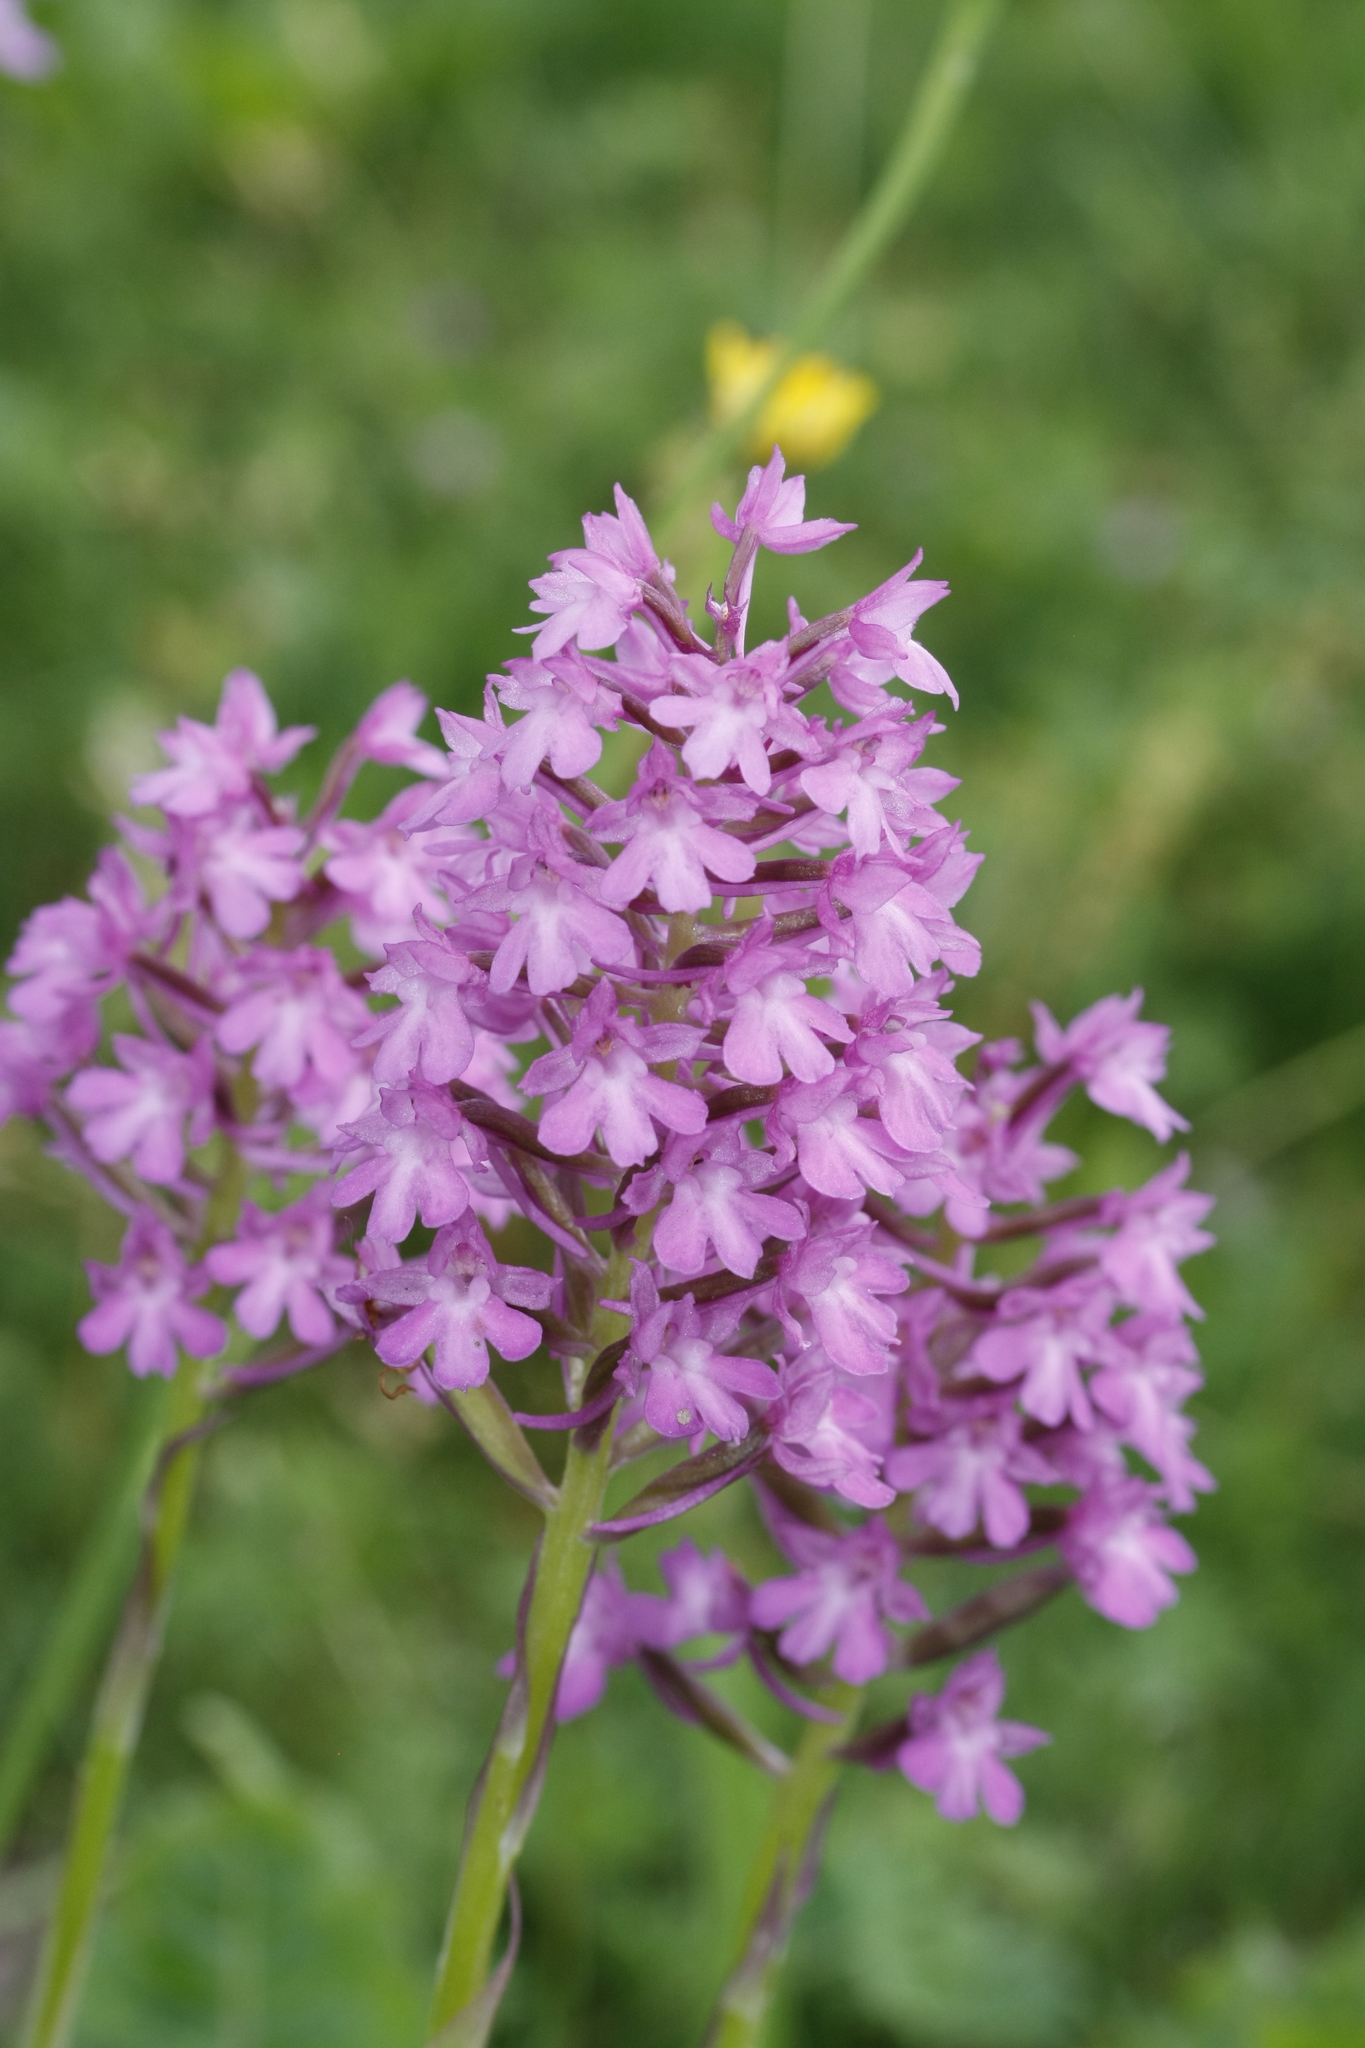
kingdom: Plantae
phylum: Tracheophyta
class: Liliopsida
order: Asparagales
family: Orchidaceae
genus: Anacamptis
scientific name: Anacamptis pyramidalis
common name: Pyramidal orchid
